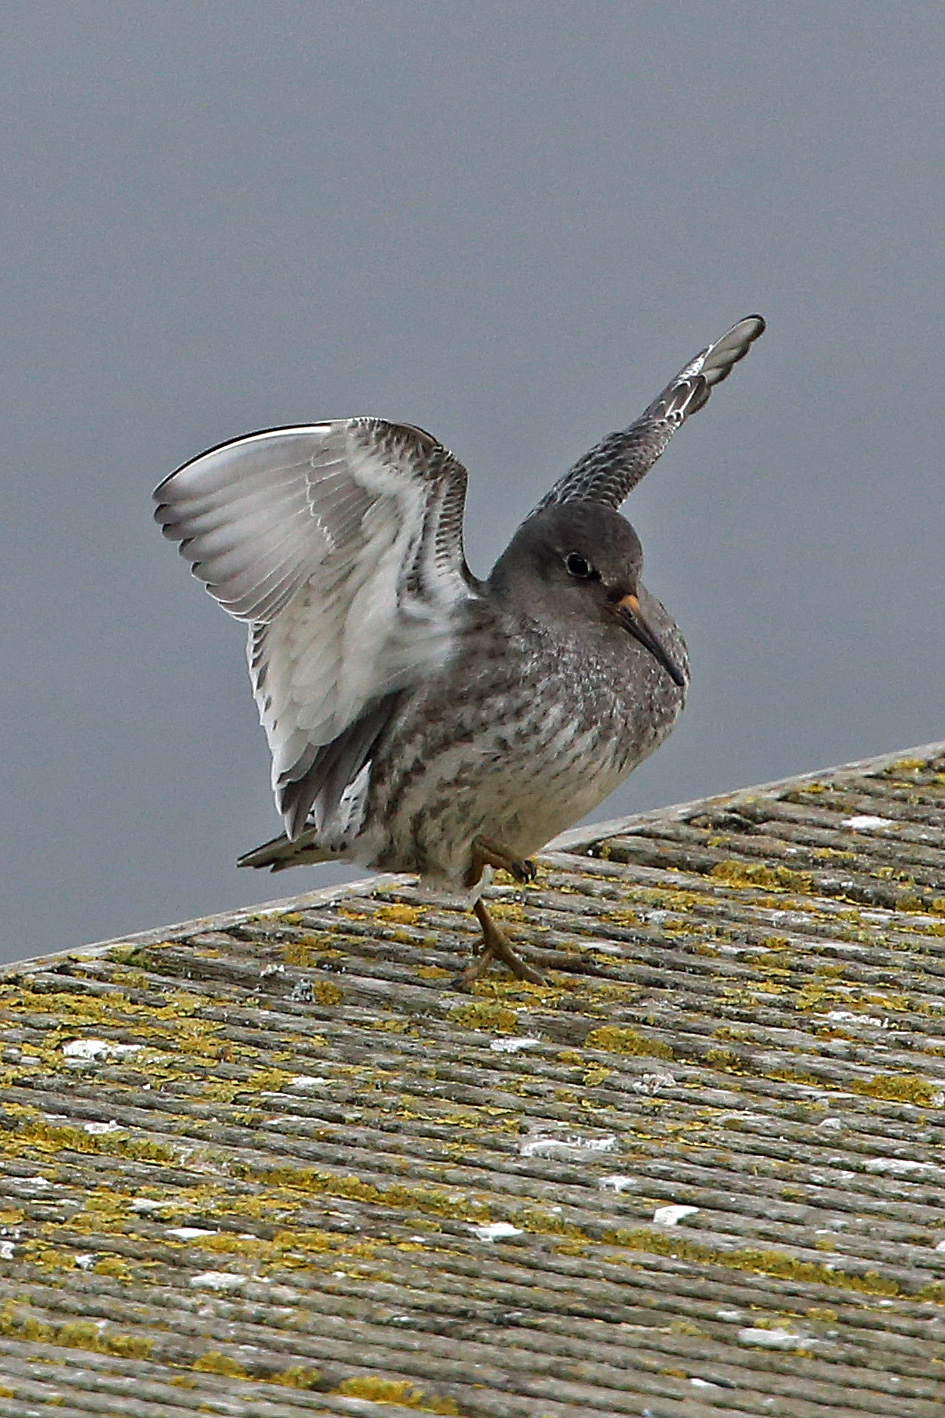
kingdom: Animalia
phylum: Chordata
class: Aves
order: Charadriiformes
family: Scolopacidae
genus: Calidris
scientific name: Calidris maritima
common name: Purple sandpiper
